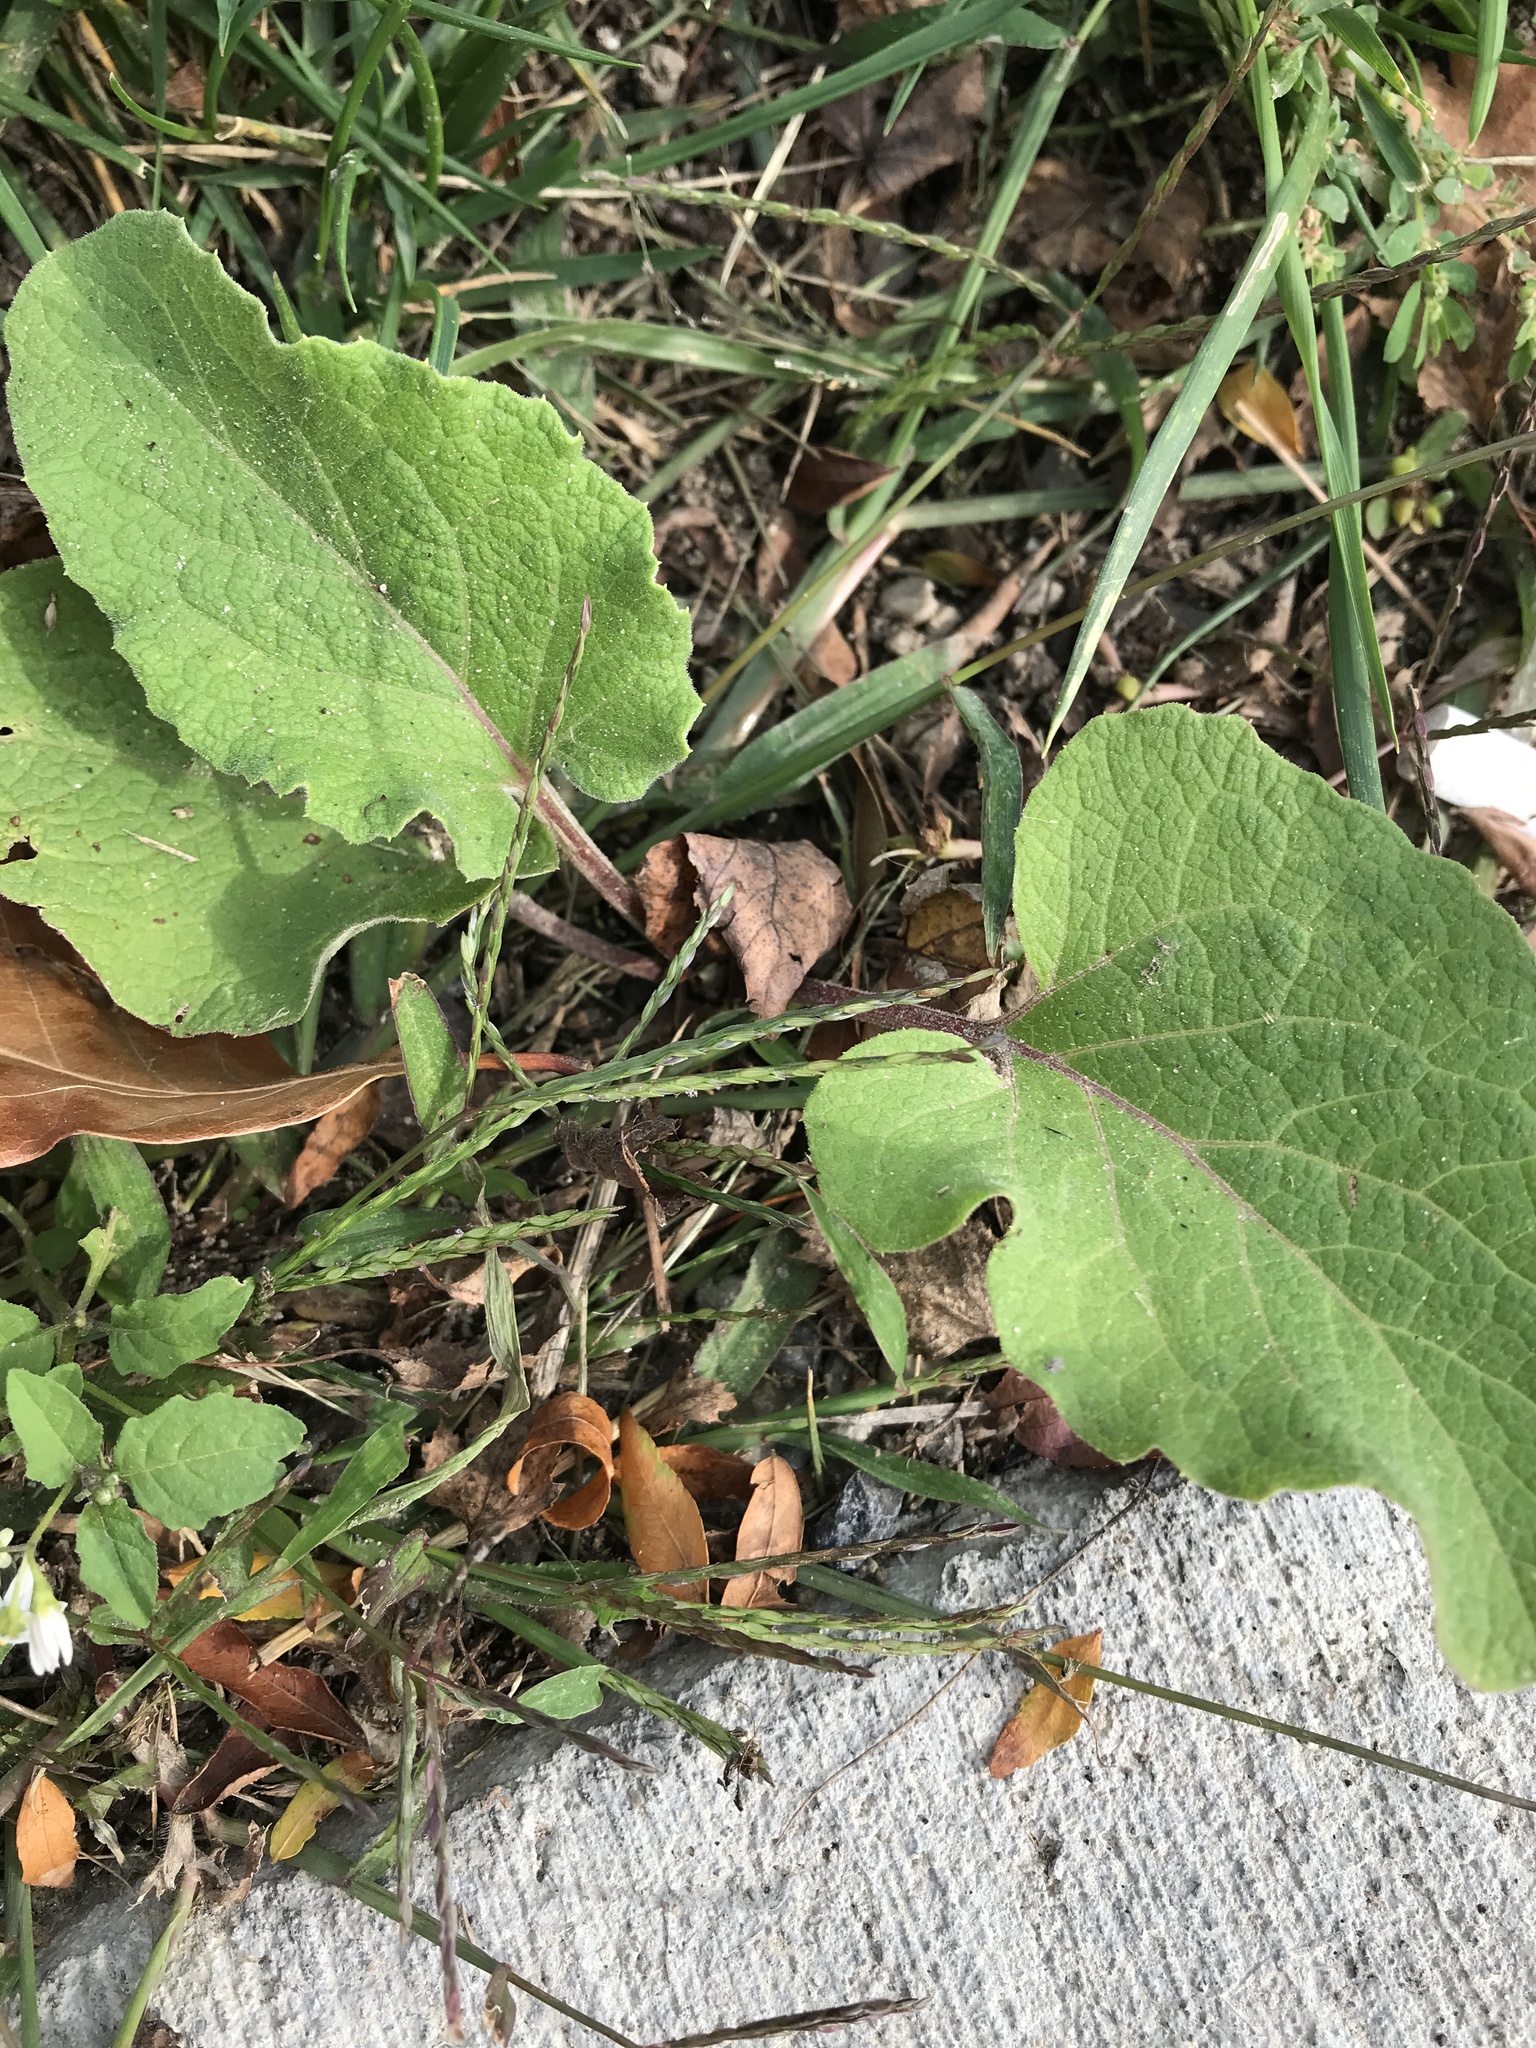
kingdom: Plantae
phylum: Tracheophyta
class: Magnoliopsida
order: Asterales
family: Asteraceae
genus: Arctium
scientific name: Arctium
